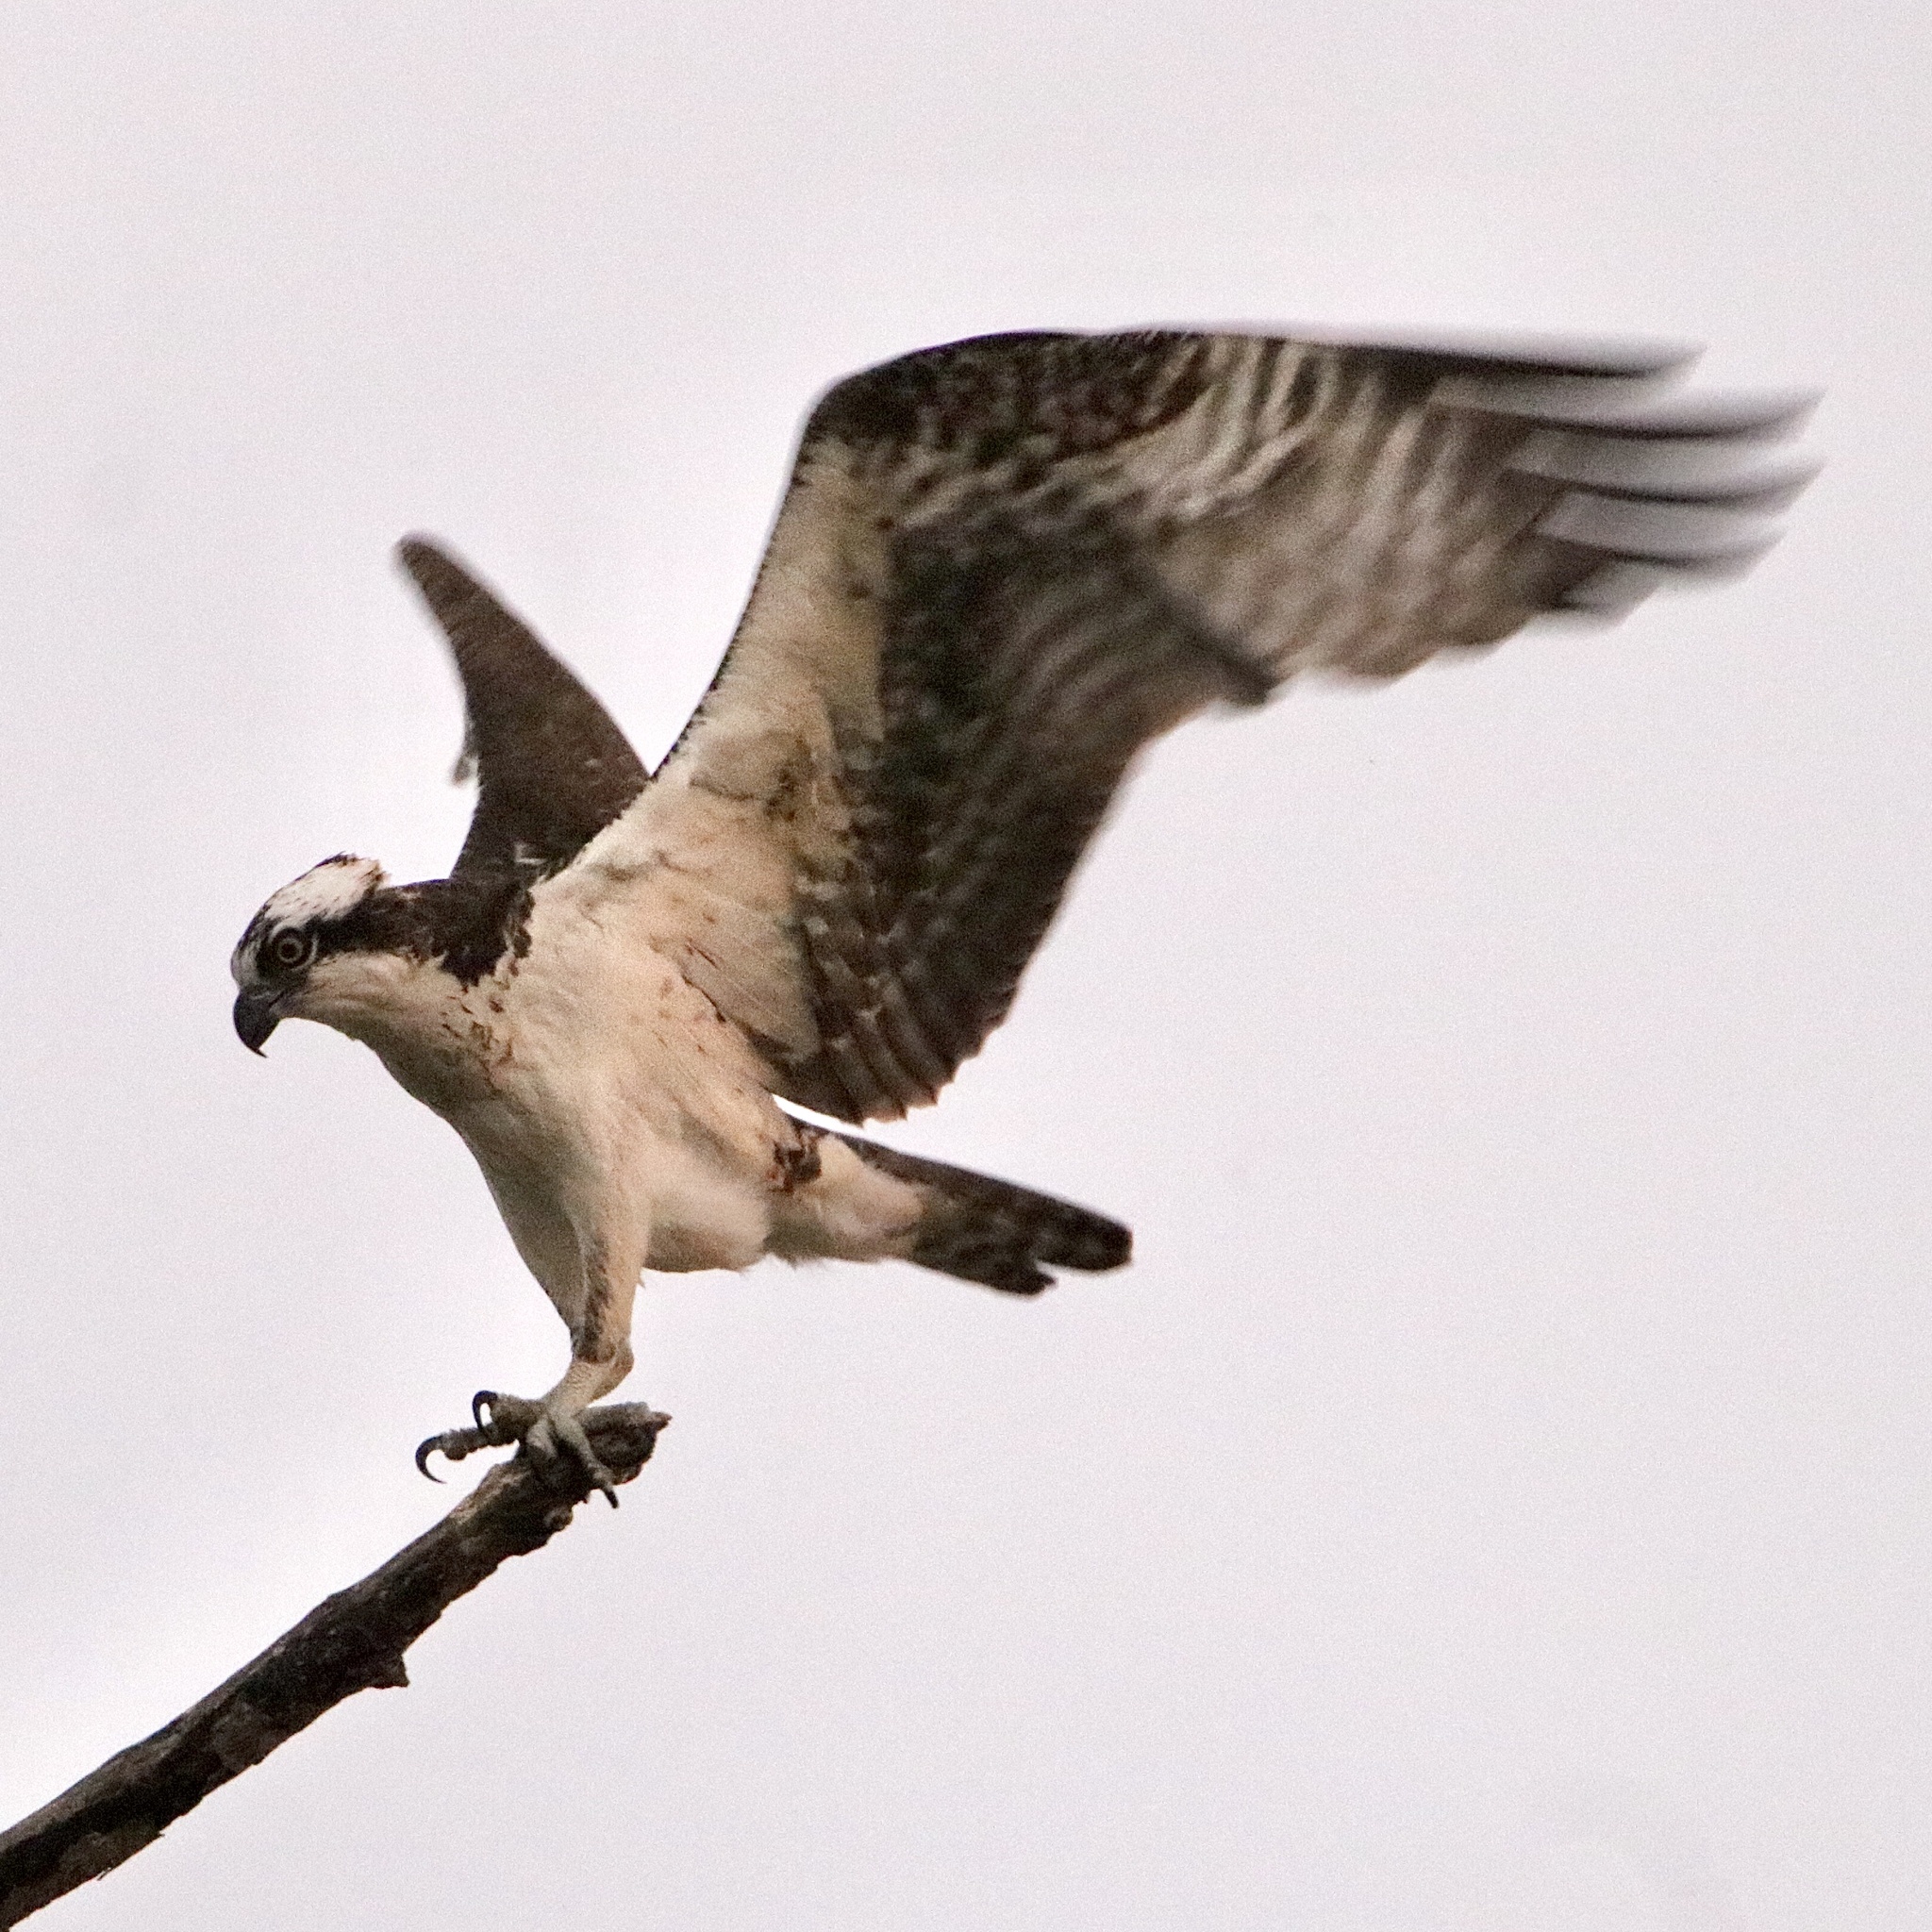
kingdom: Animalia
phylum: Chordata
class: Aves
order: Accipitriformes
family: Pandionidae
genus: Pandion
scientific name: Pandion haliaetus
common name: Osprey
